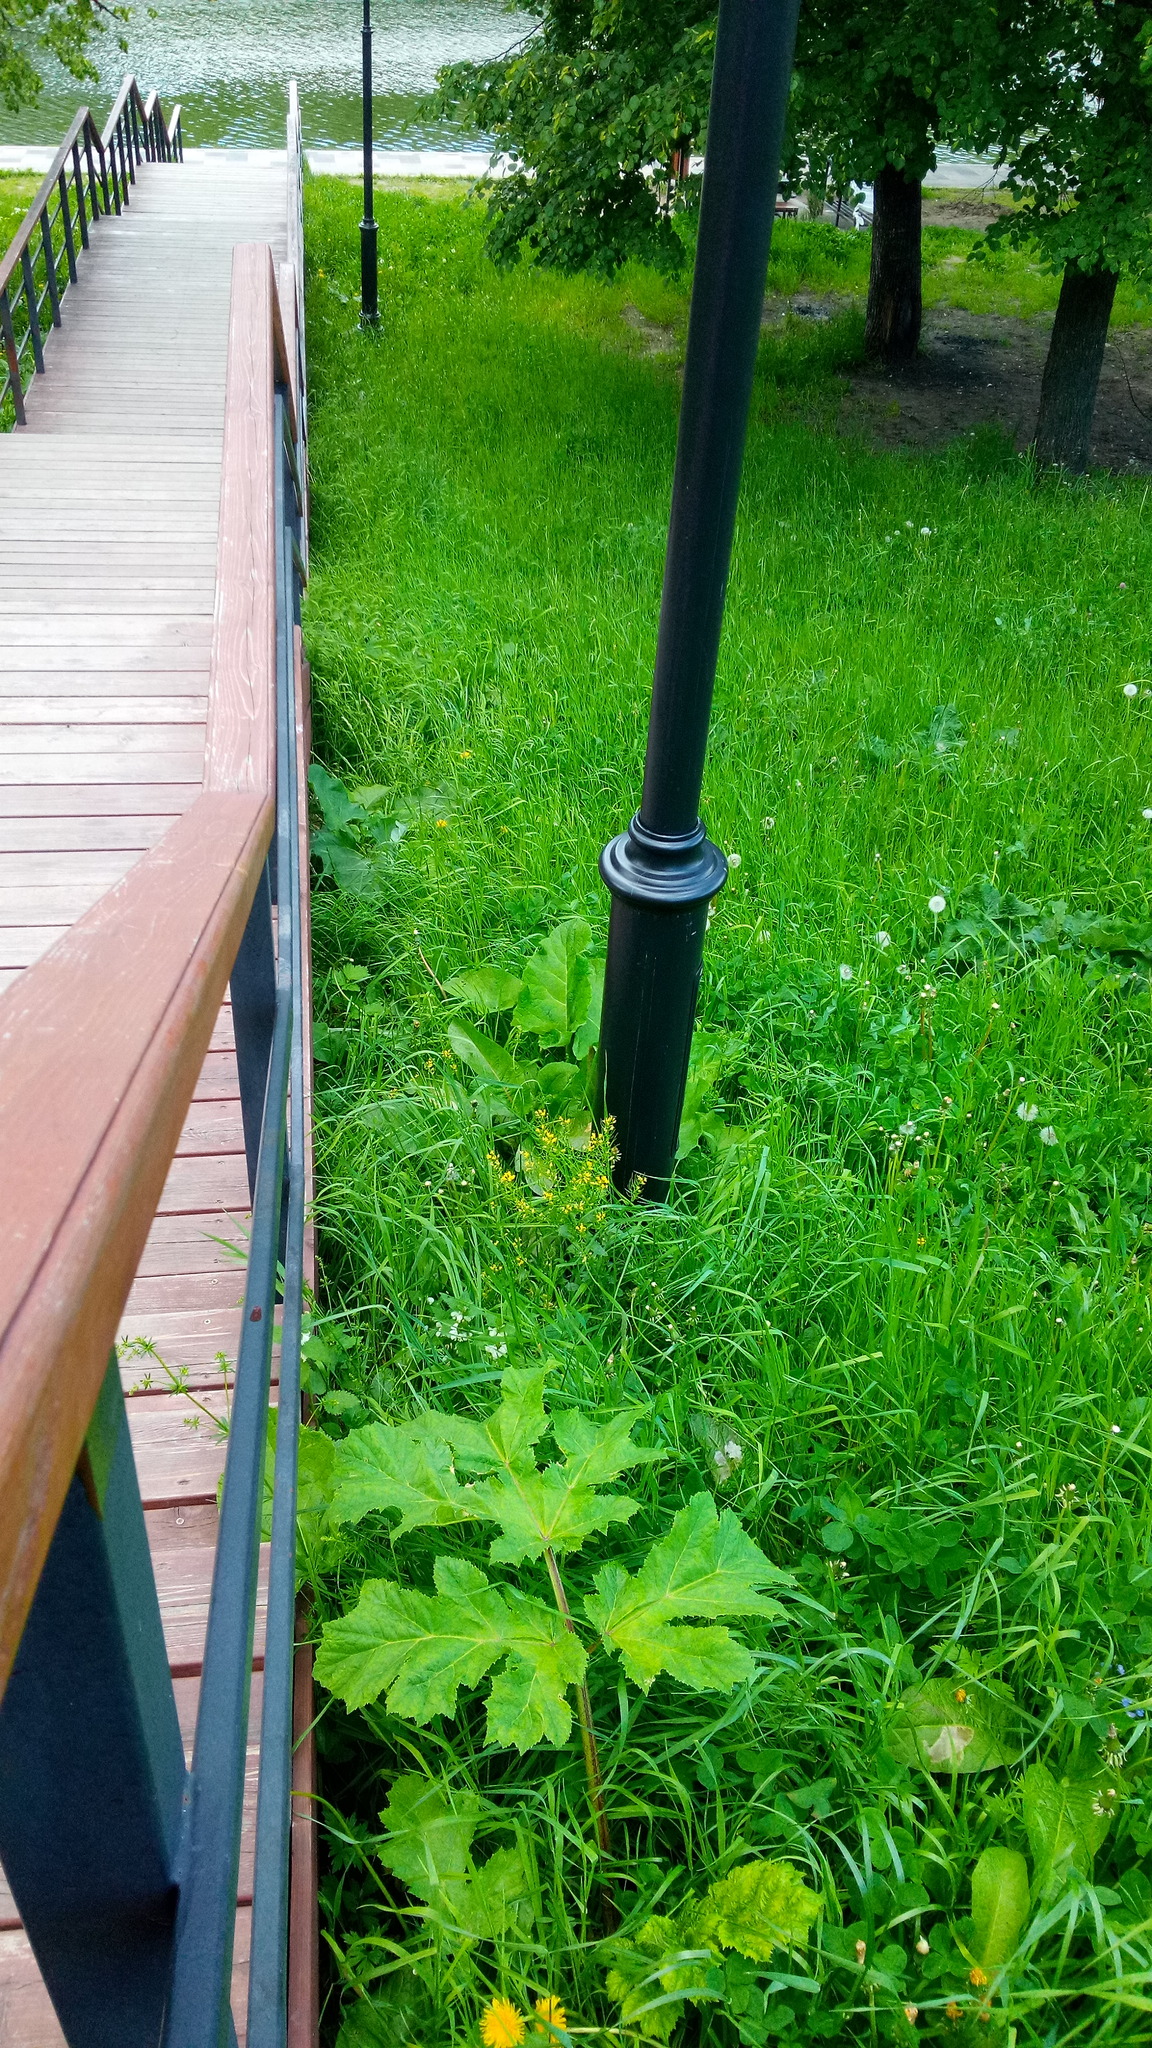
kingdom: Plantae
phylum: Tracheophyta
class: Magnoliopsida
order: Apiales
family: Apiaceae
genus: Heracleum
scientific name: Heracleum sosnowskyi
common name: Sosnowsky's hogweed
